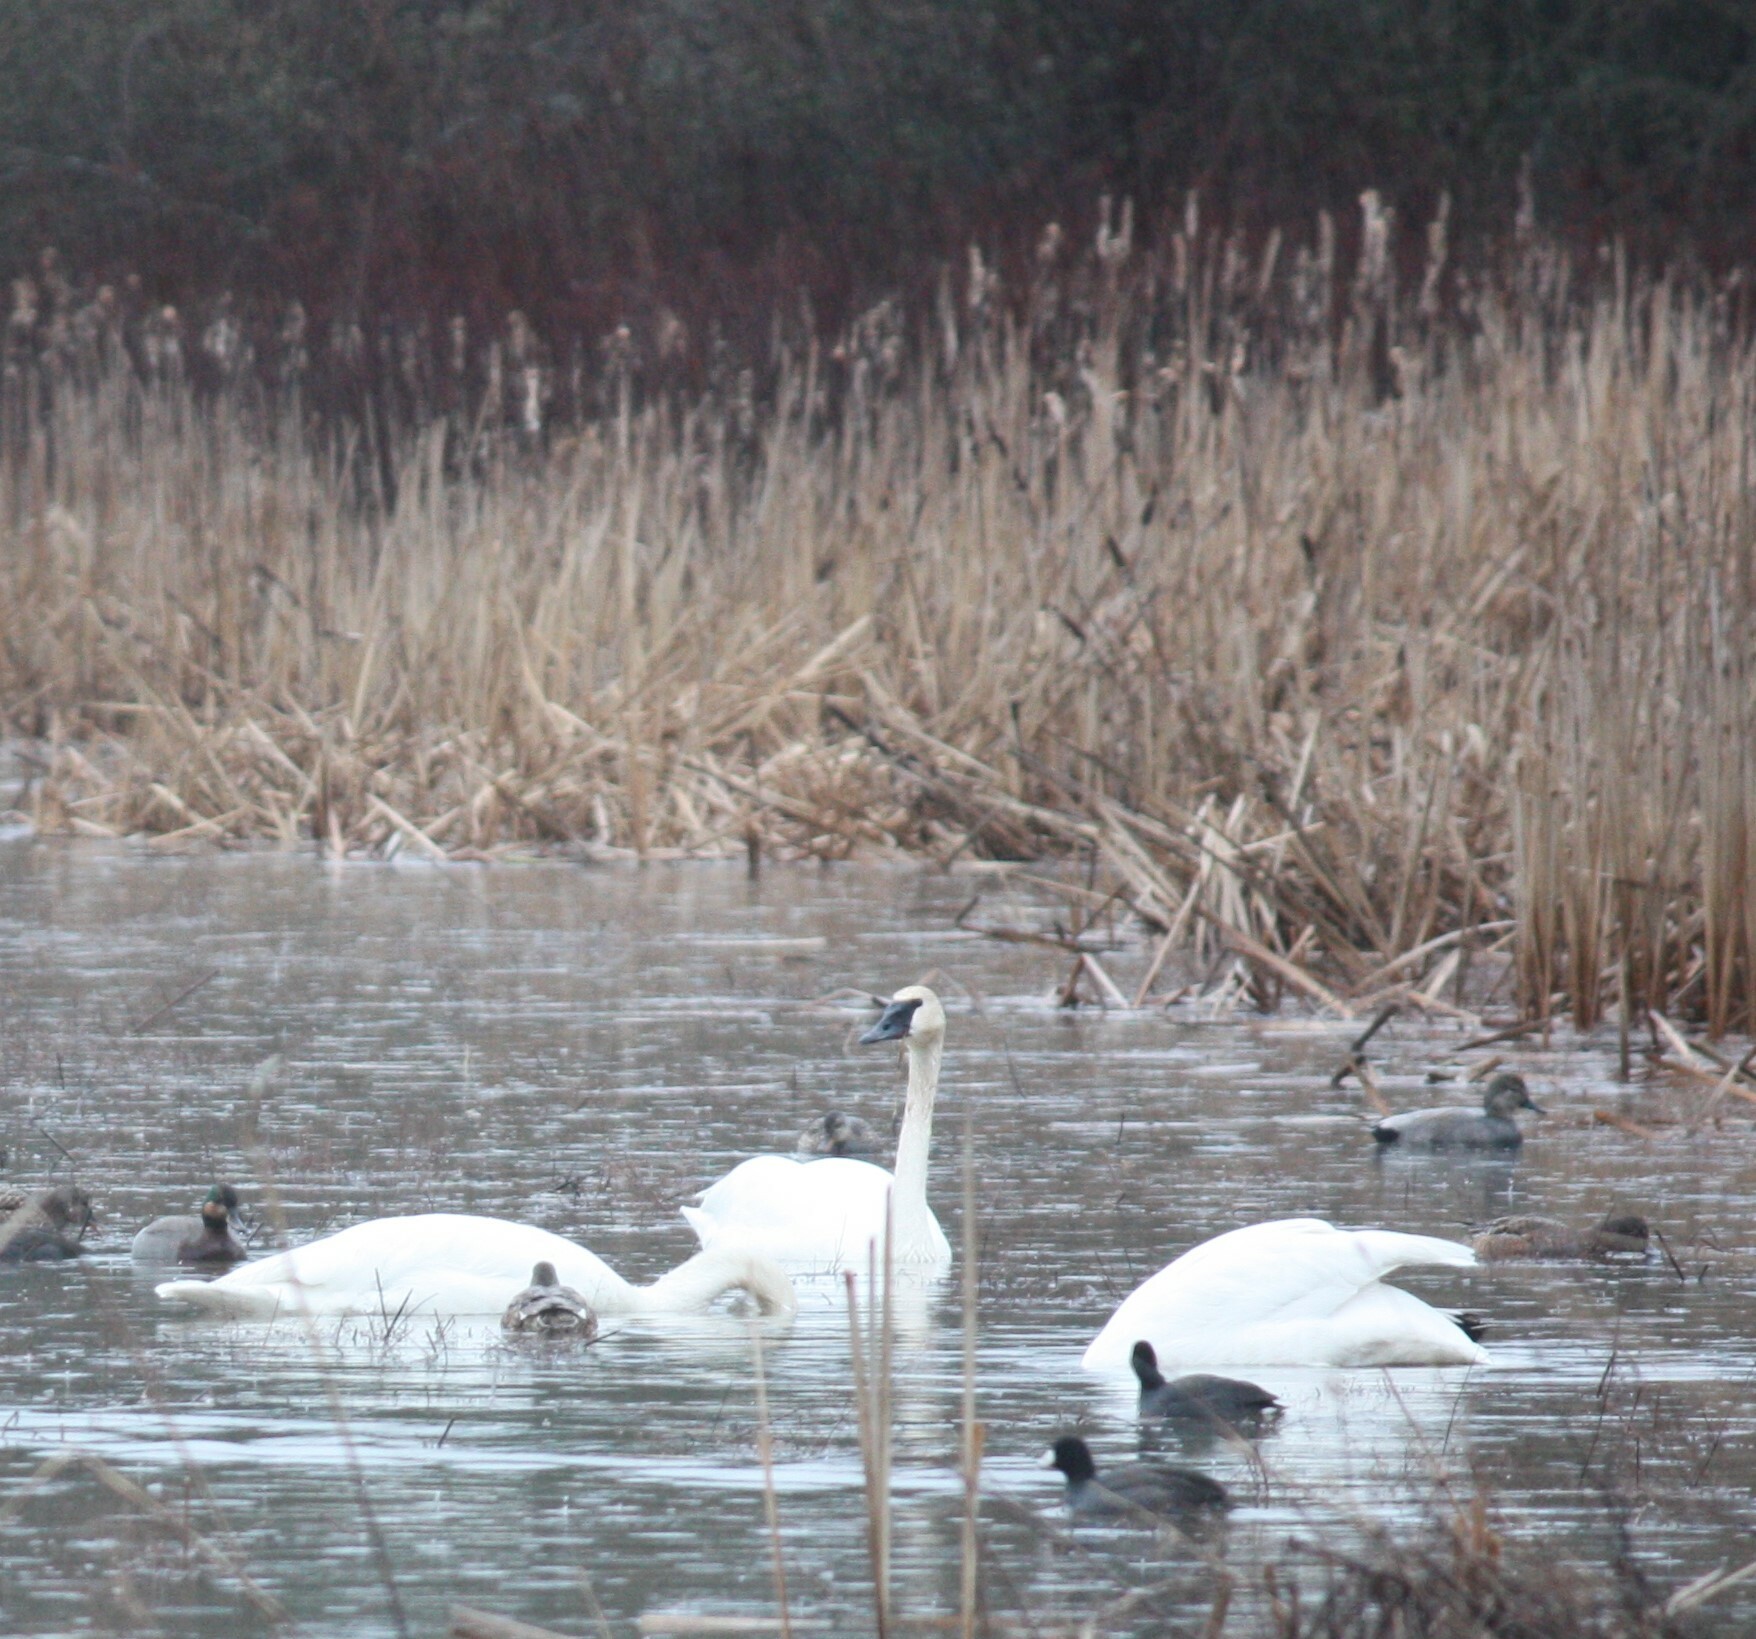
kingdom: Animalia
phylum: Chordata
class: Aves
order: Anseriformes
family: Anatidae
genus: Cygnus
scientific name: Cygnus buccinator
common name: Trumpeter swan
